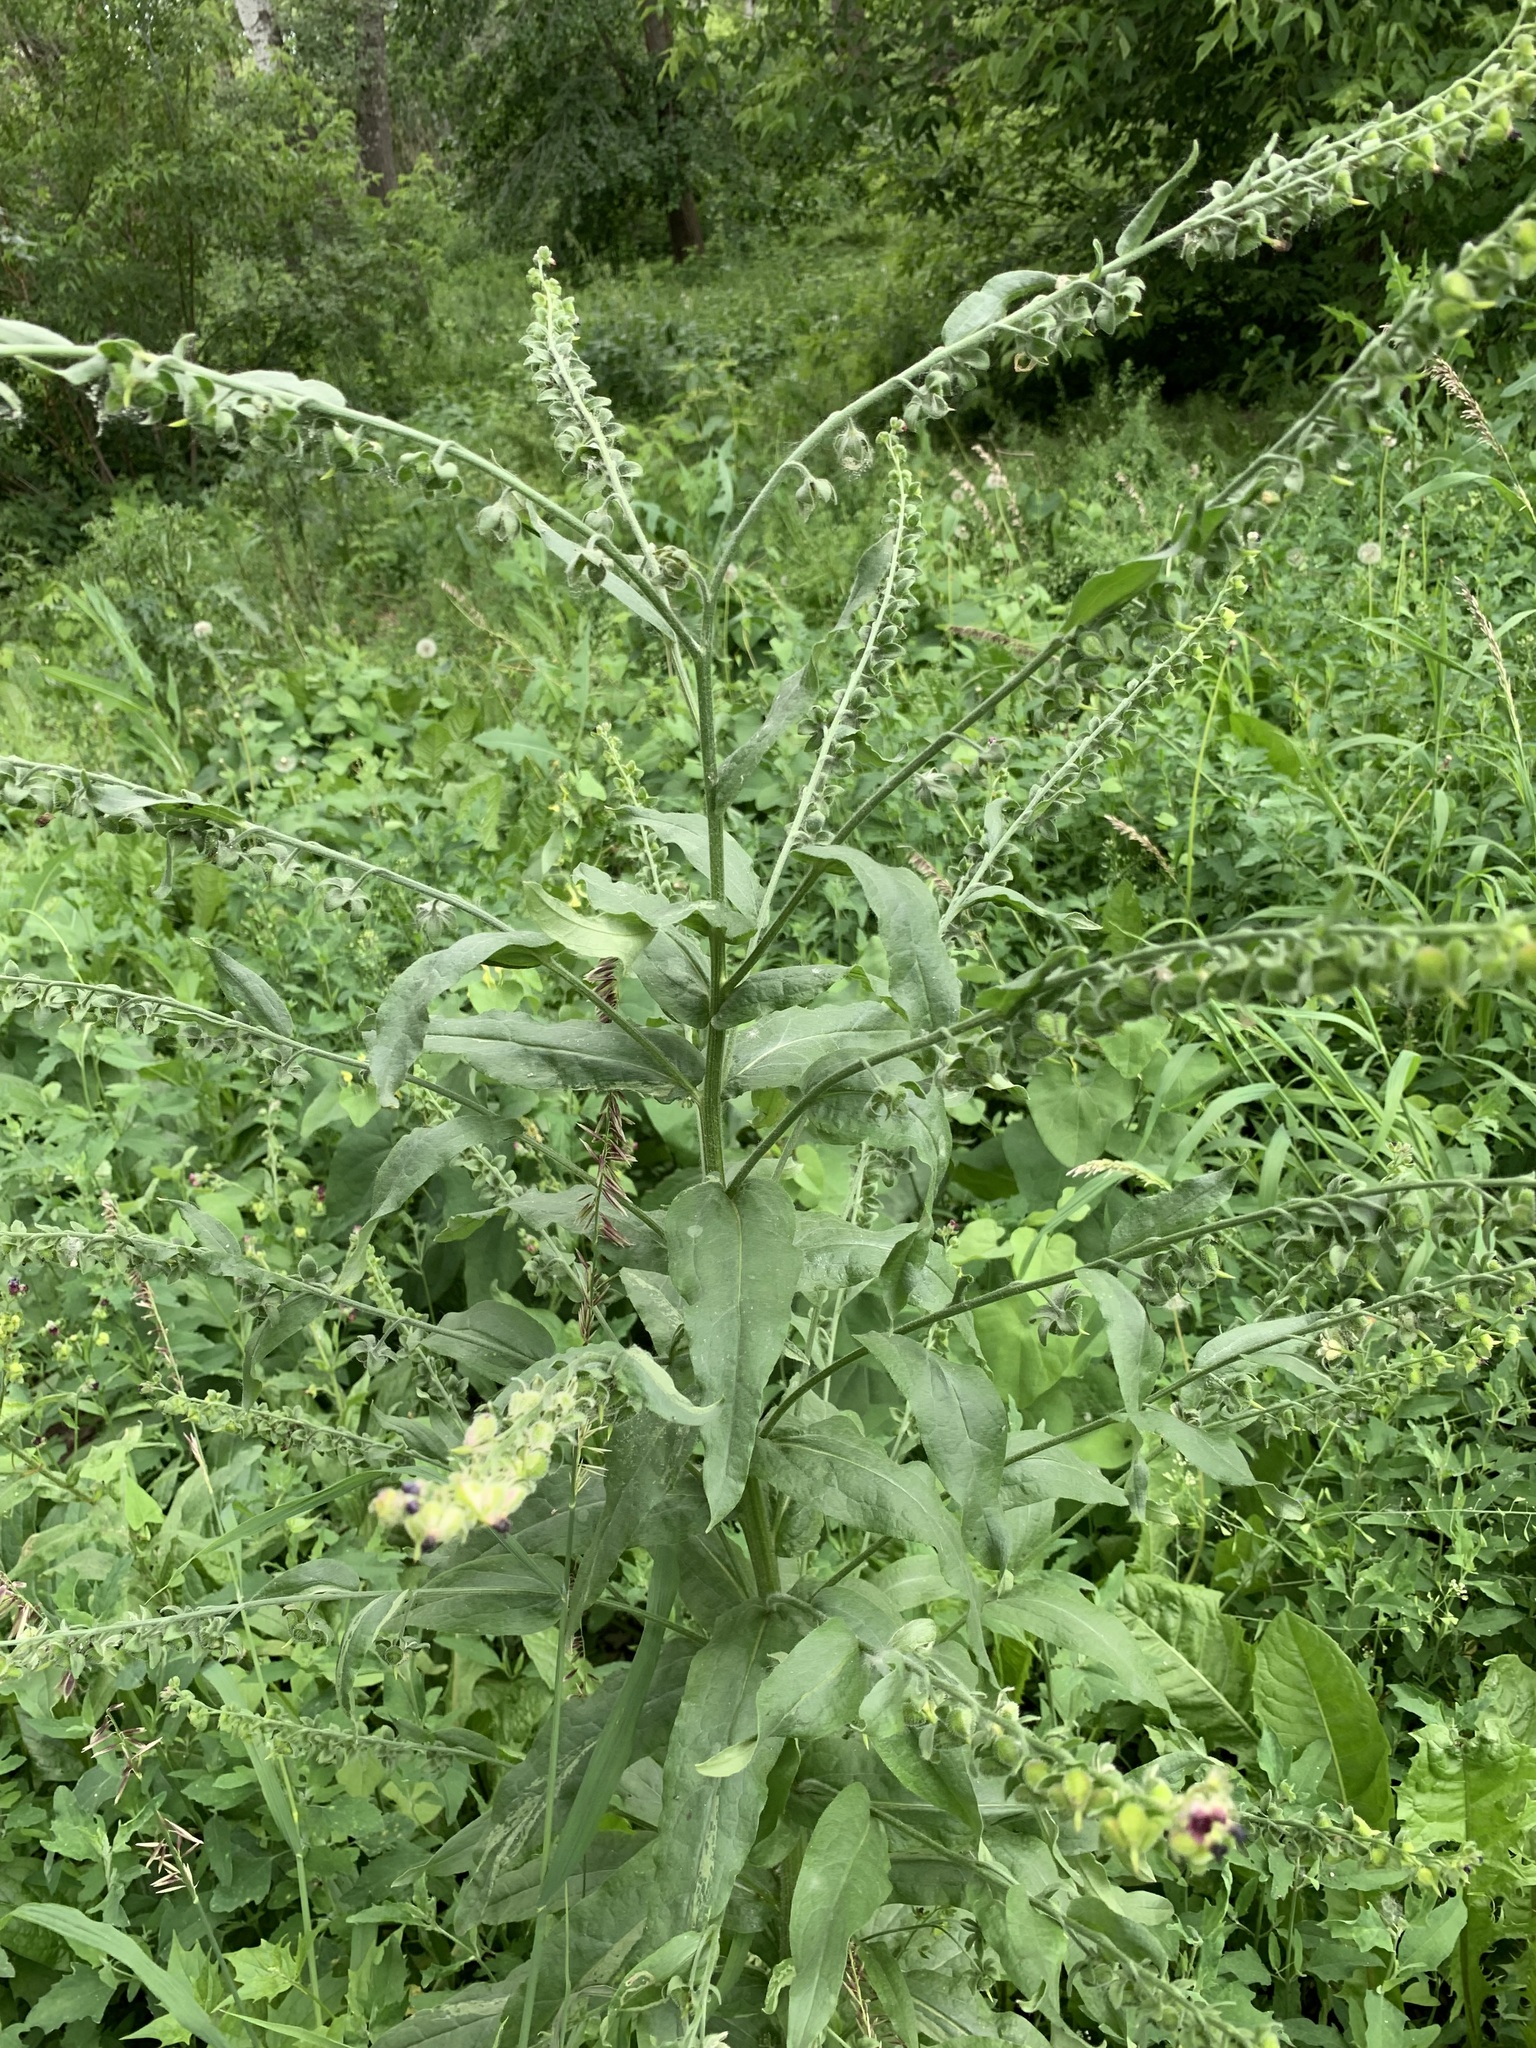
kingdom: Plantae
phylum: Tracheophyta
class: Magnoliopsida
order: Boraginales
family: Boraginaceae
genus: Cynoglossum
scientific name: Cynoglossum officinale
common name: Hound's-tongue
